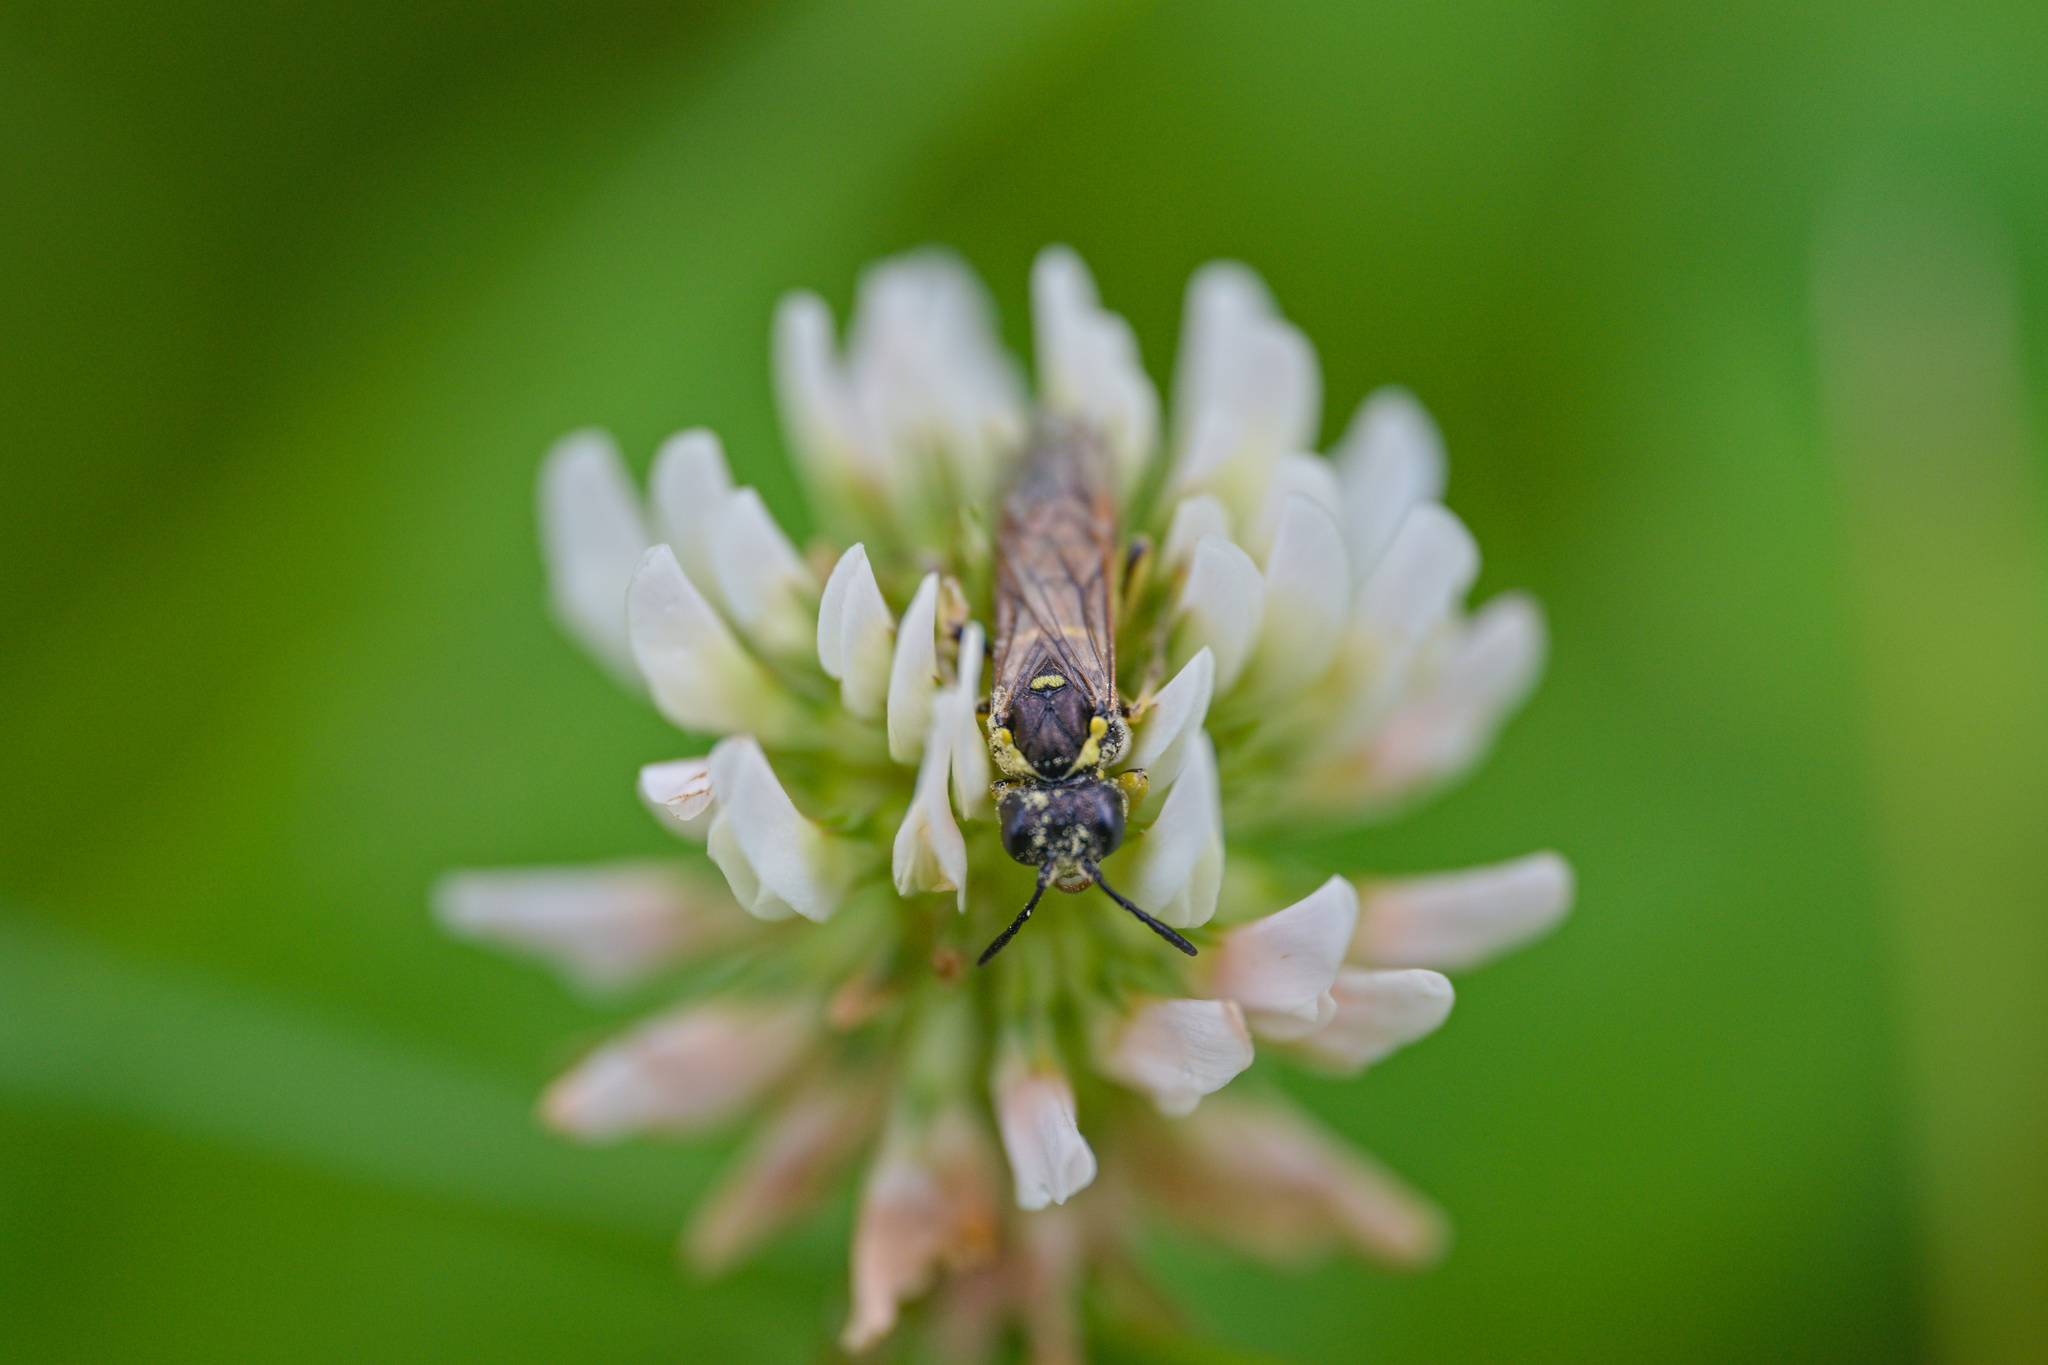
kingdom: Plantae
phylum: Tracheophyta
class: Magnoliopsida
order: Fabales
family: Fabaceae
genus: Trifolium
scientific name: Trifolium repens
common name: White clover
